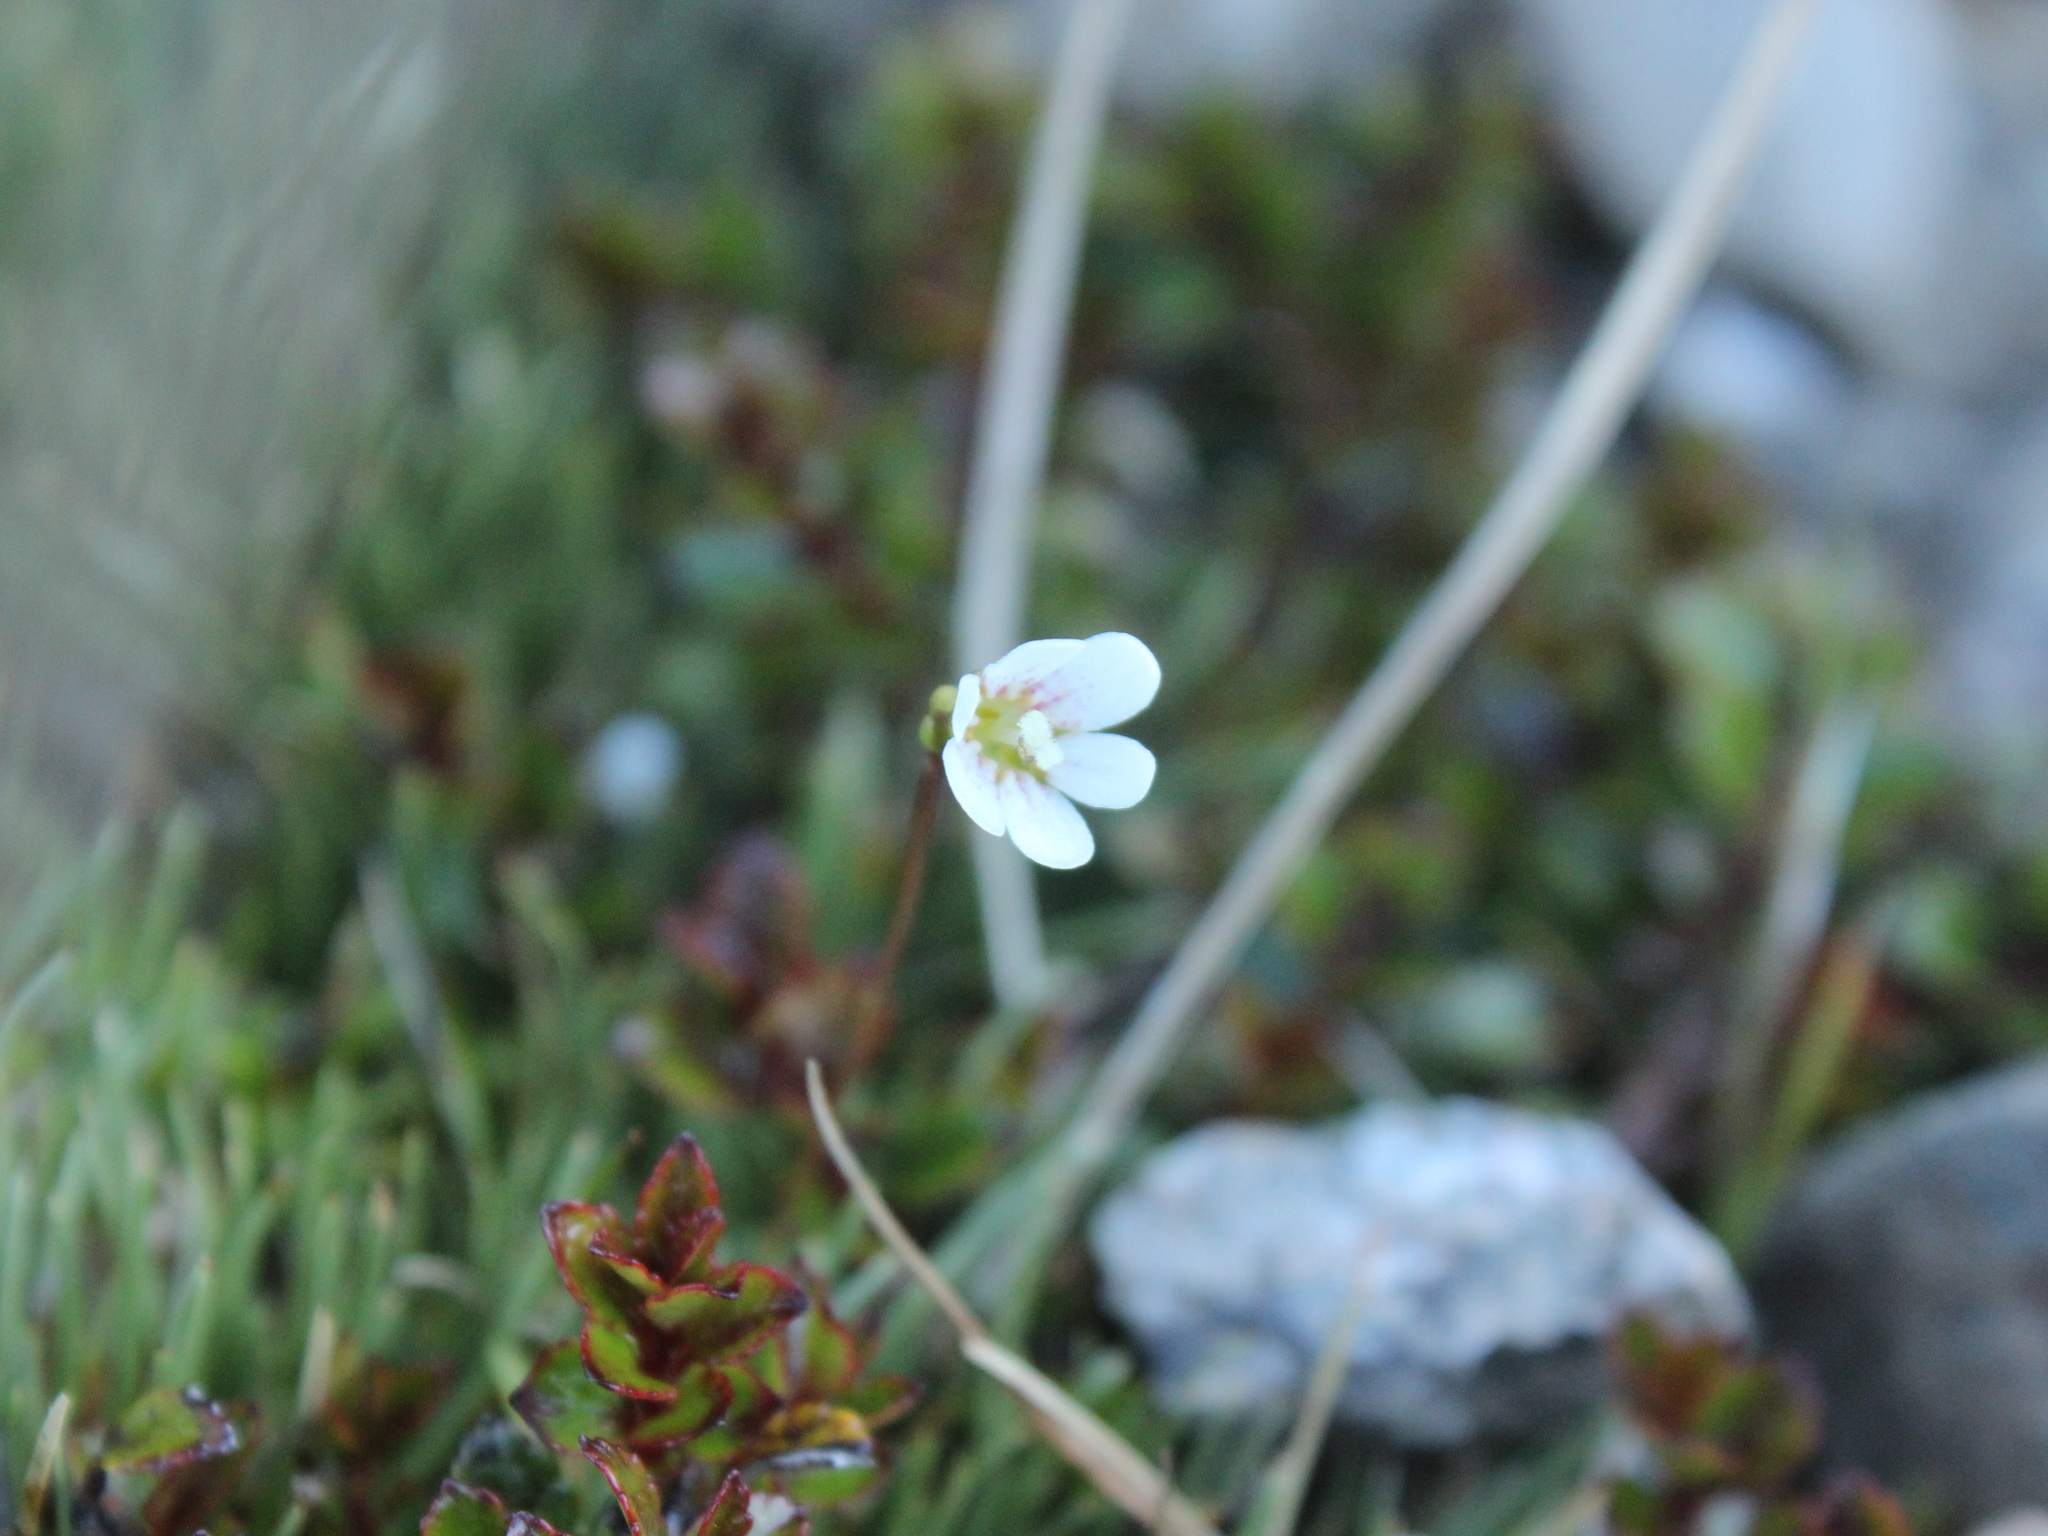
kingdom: Plantae
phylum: Tracheophyta
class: Magnoliopsida
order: Asterales
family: Stylidiaceae
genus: Forstera
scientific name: Forstera tenella
